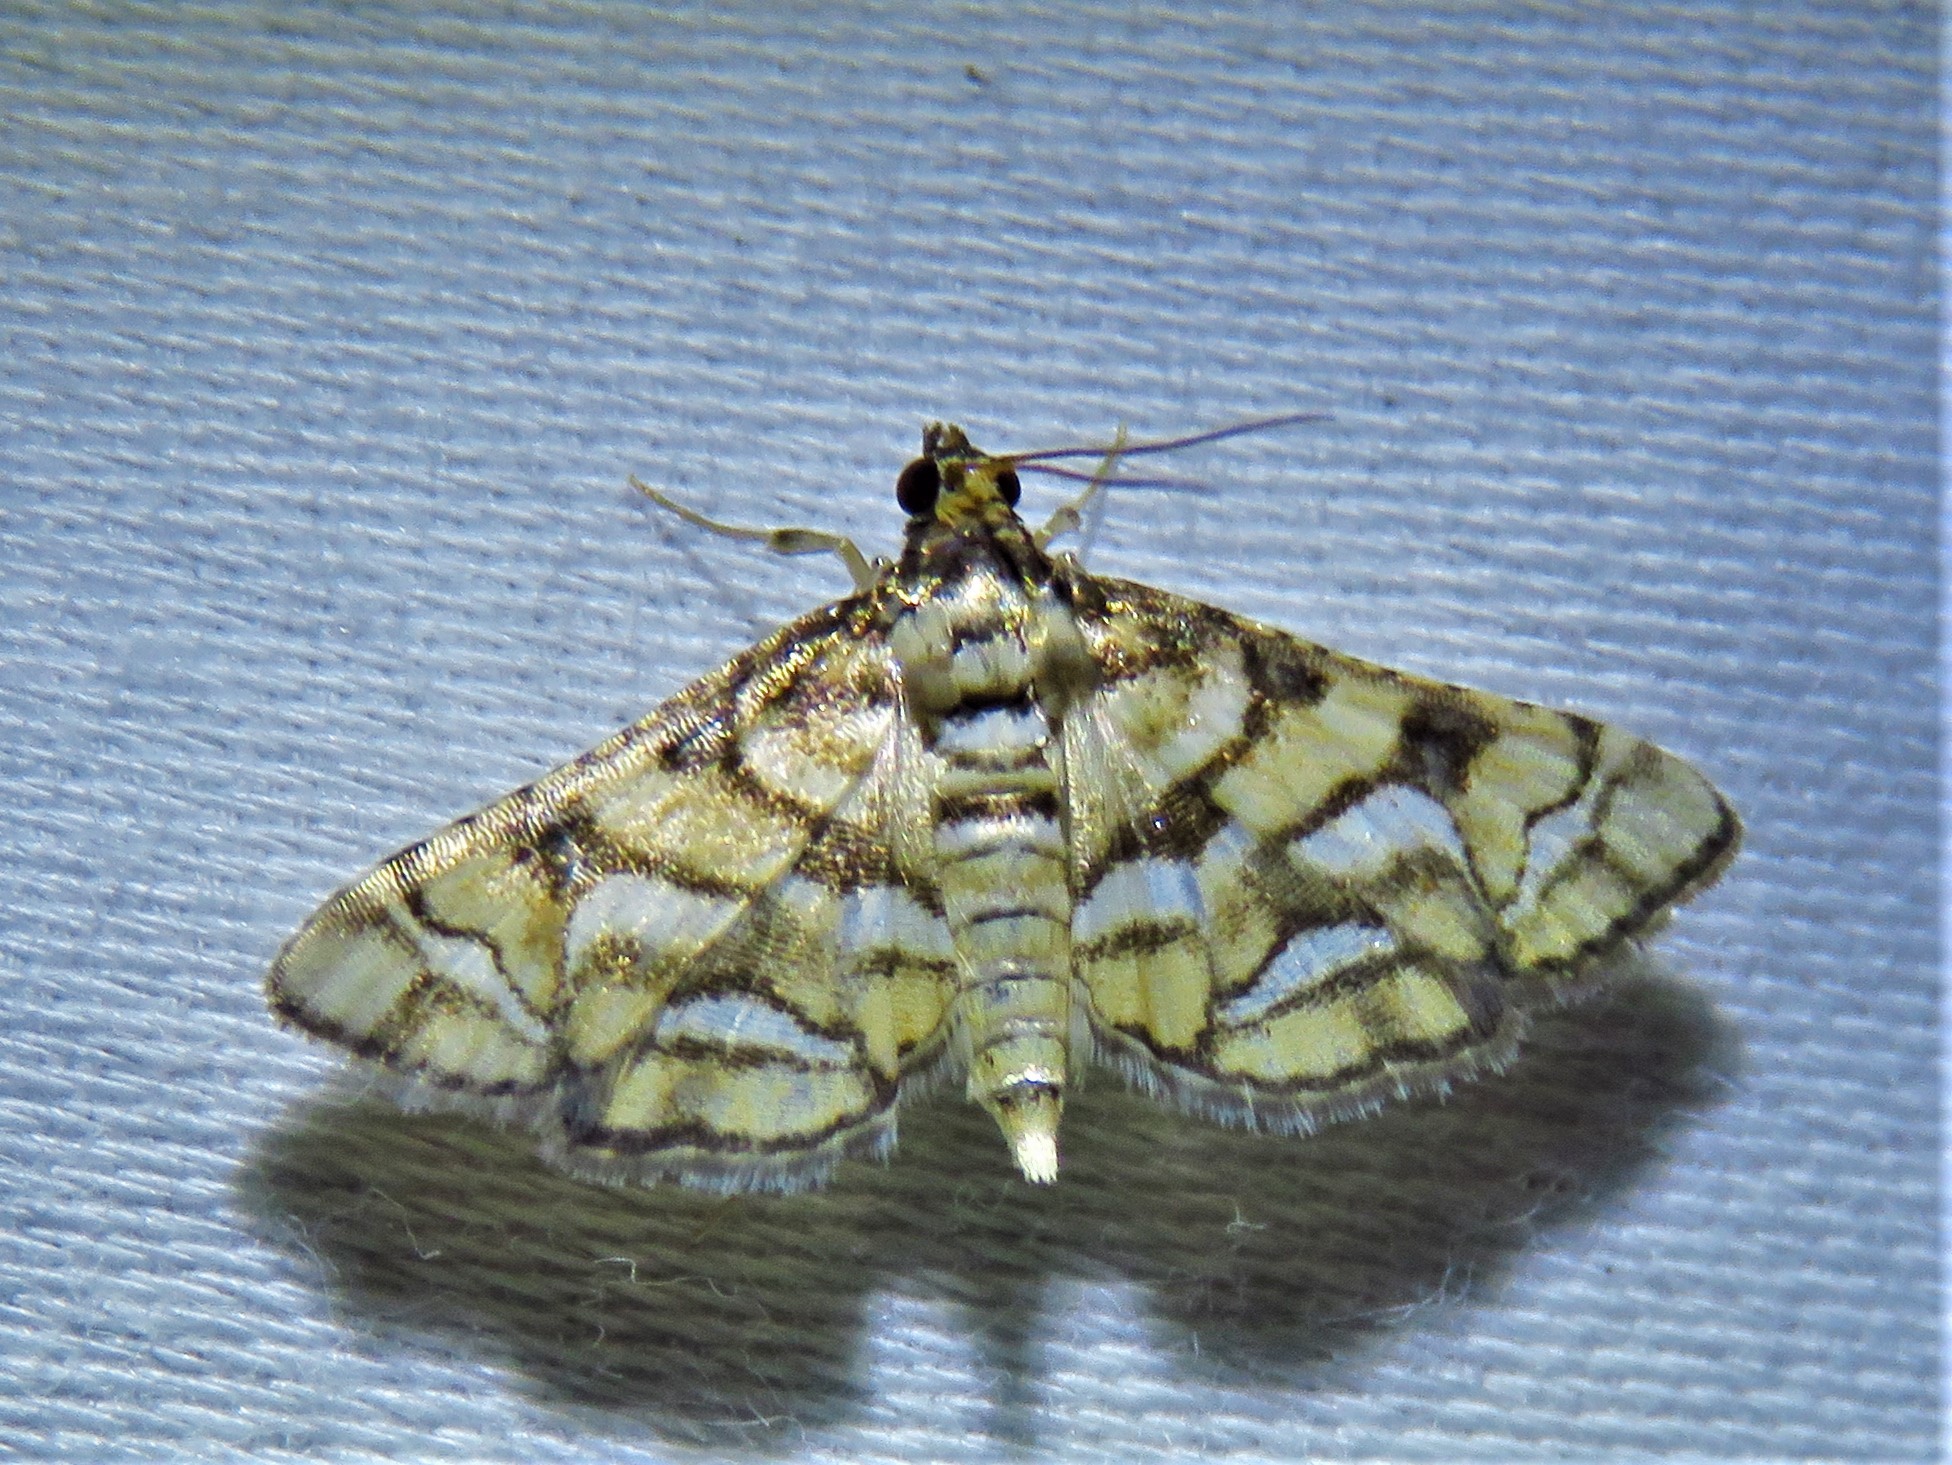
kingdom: Animalia
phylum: Arthropoda
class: Insecta
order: Lepidoptera
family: Crambidae
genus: Hileithia
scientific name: Hileithia magualis
